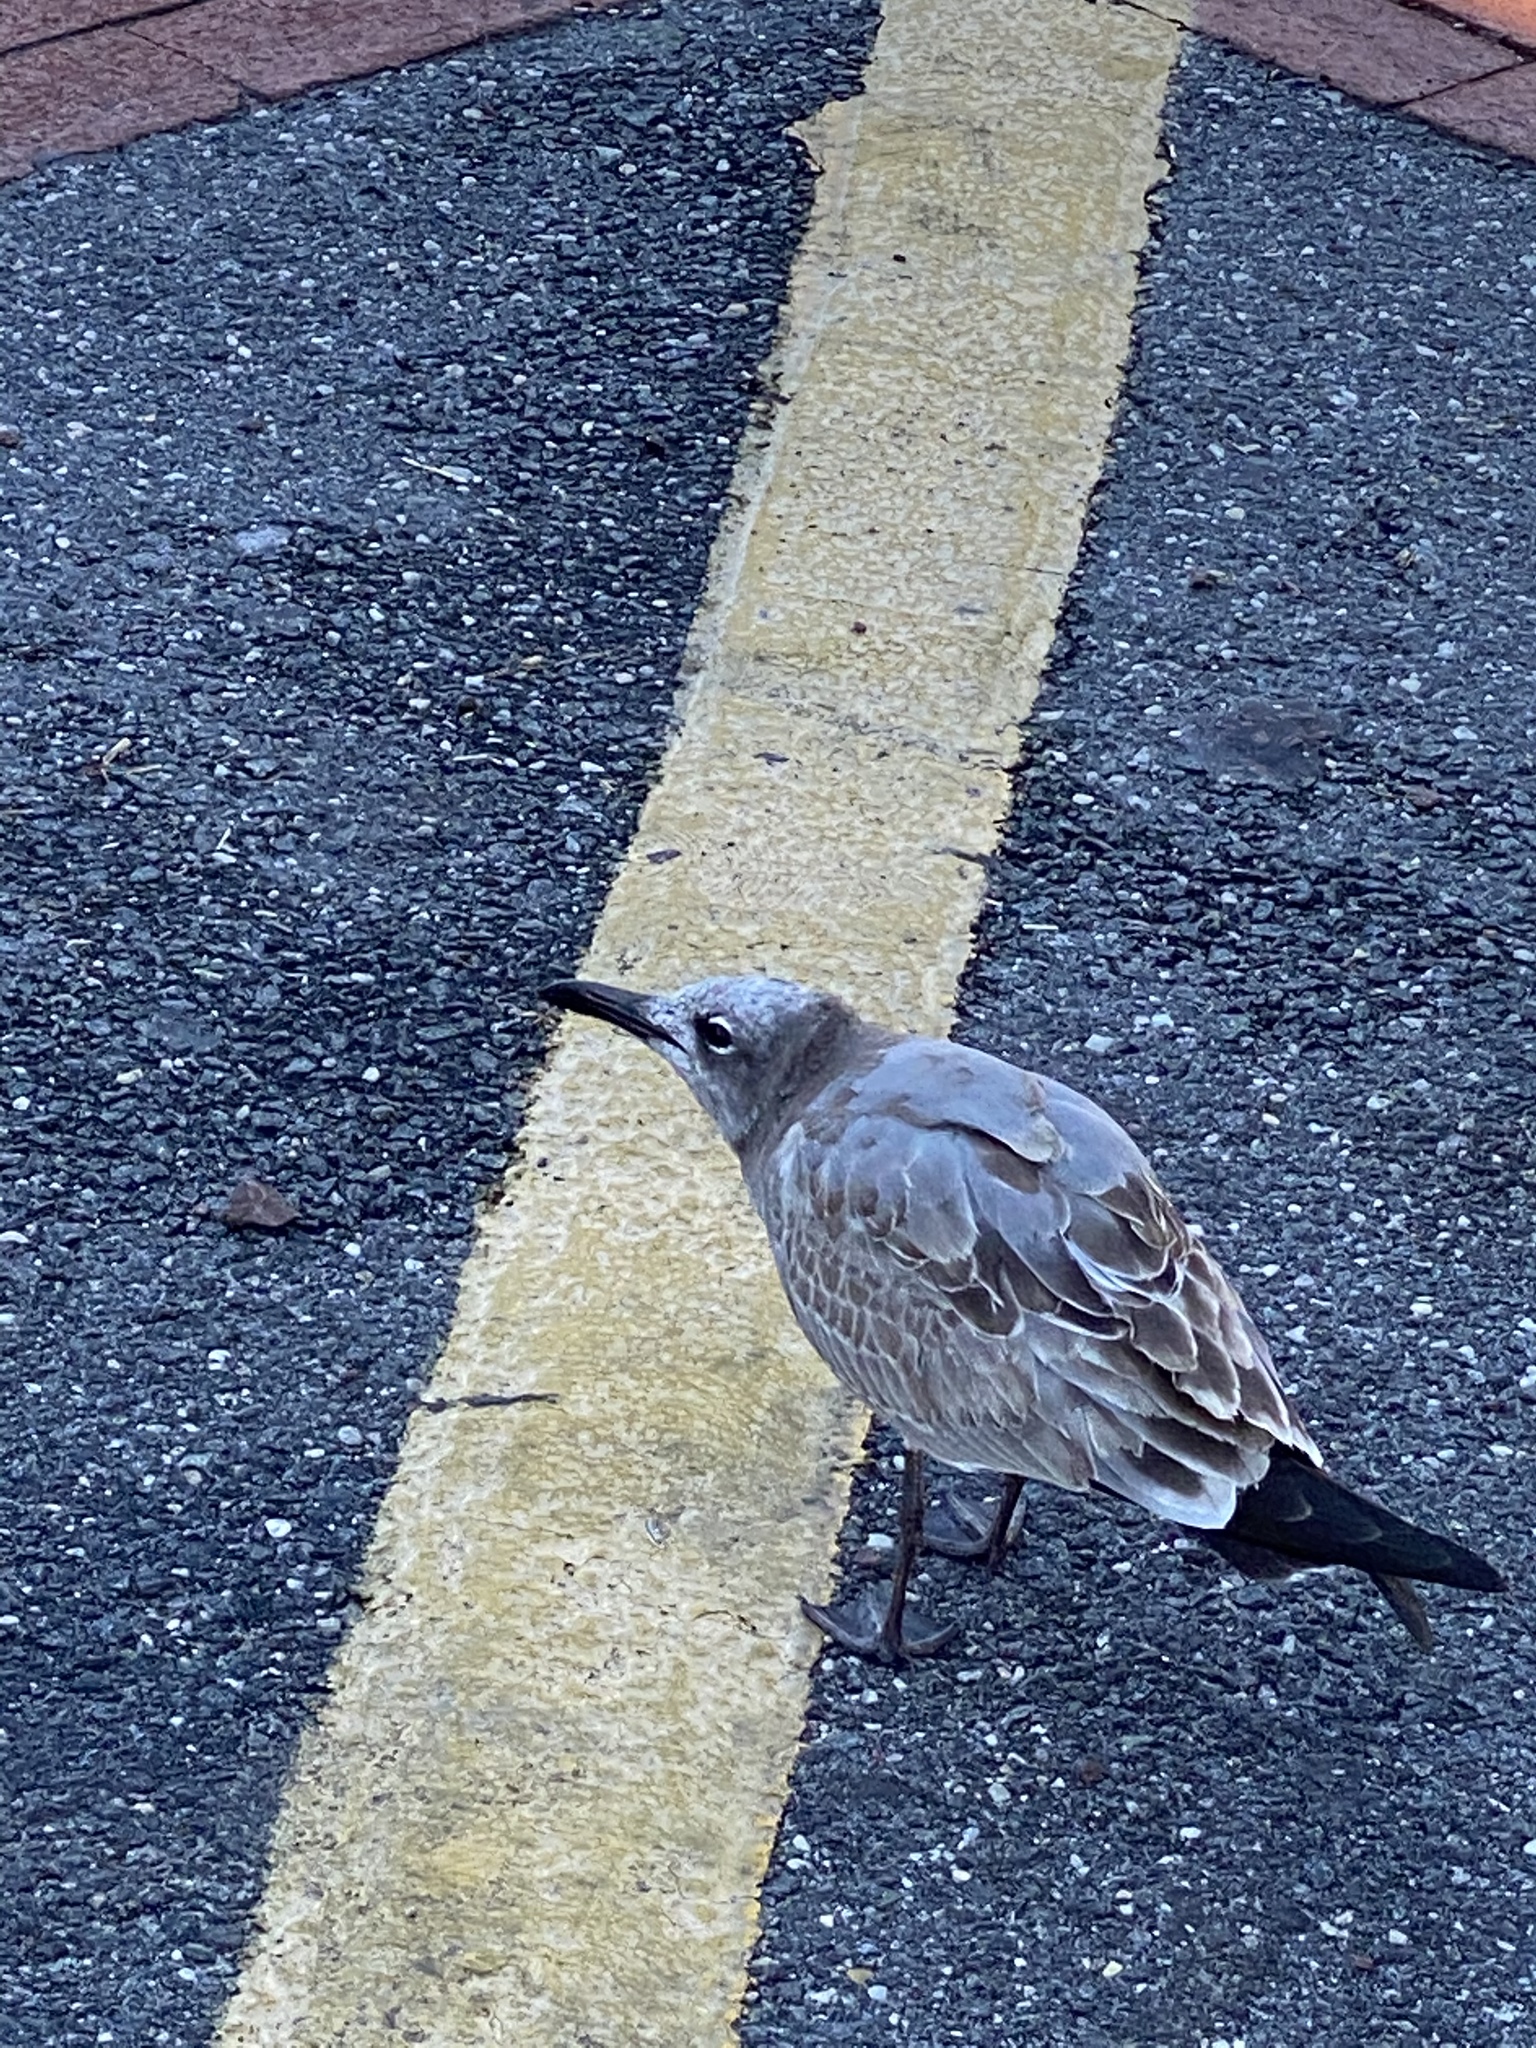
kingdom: Animalia
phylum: Chordata
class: Aves
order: Charadriiformes
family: Laridae
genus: Leucophaeus
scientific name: Leucophaeus atricilla
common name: Laughing gull
